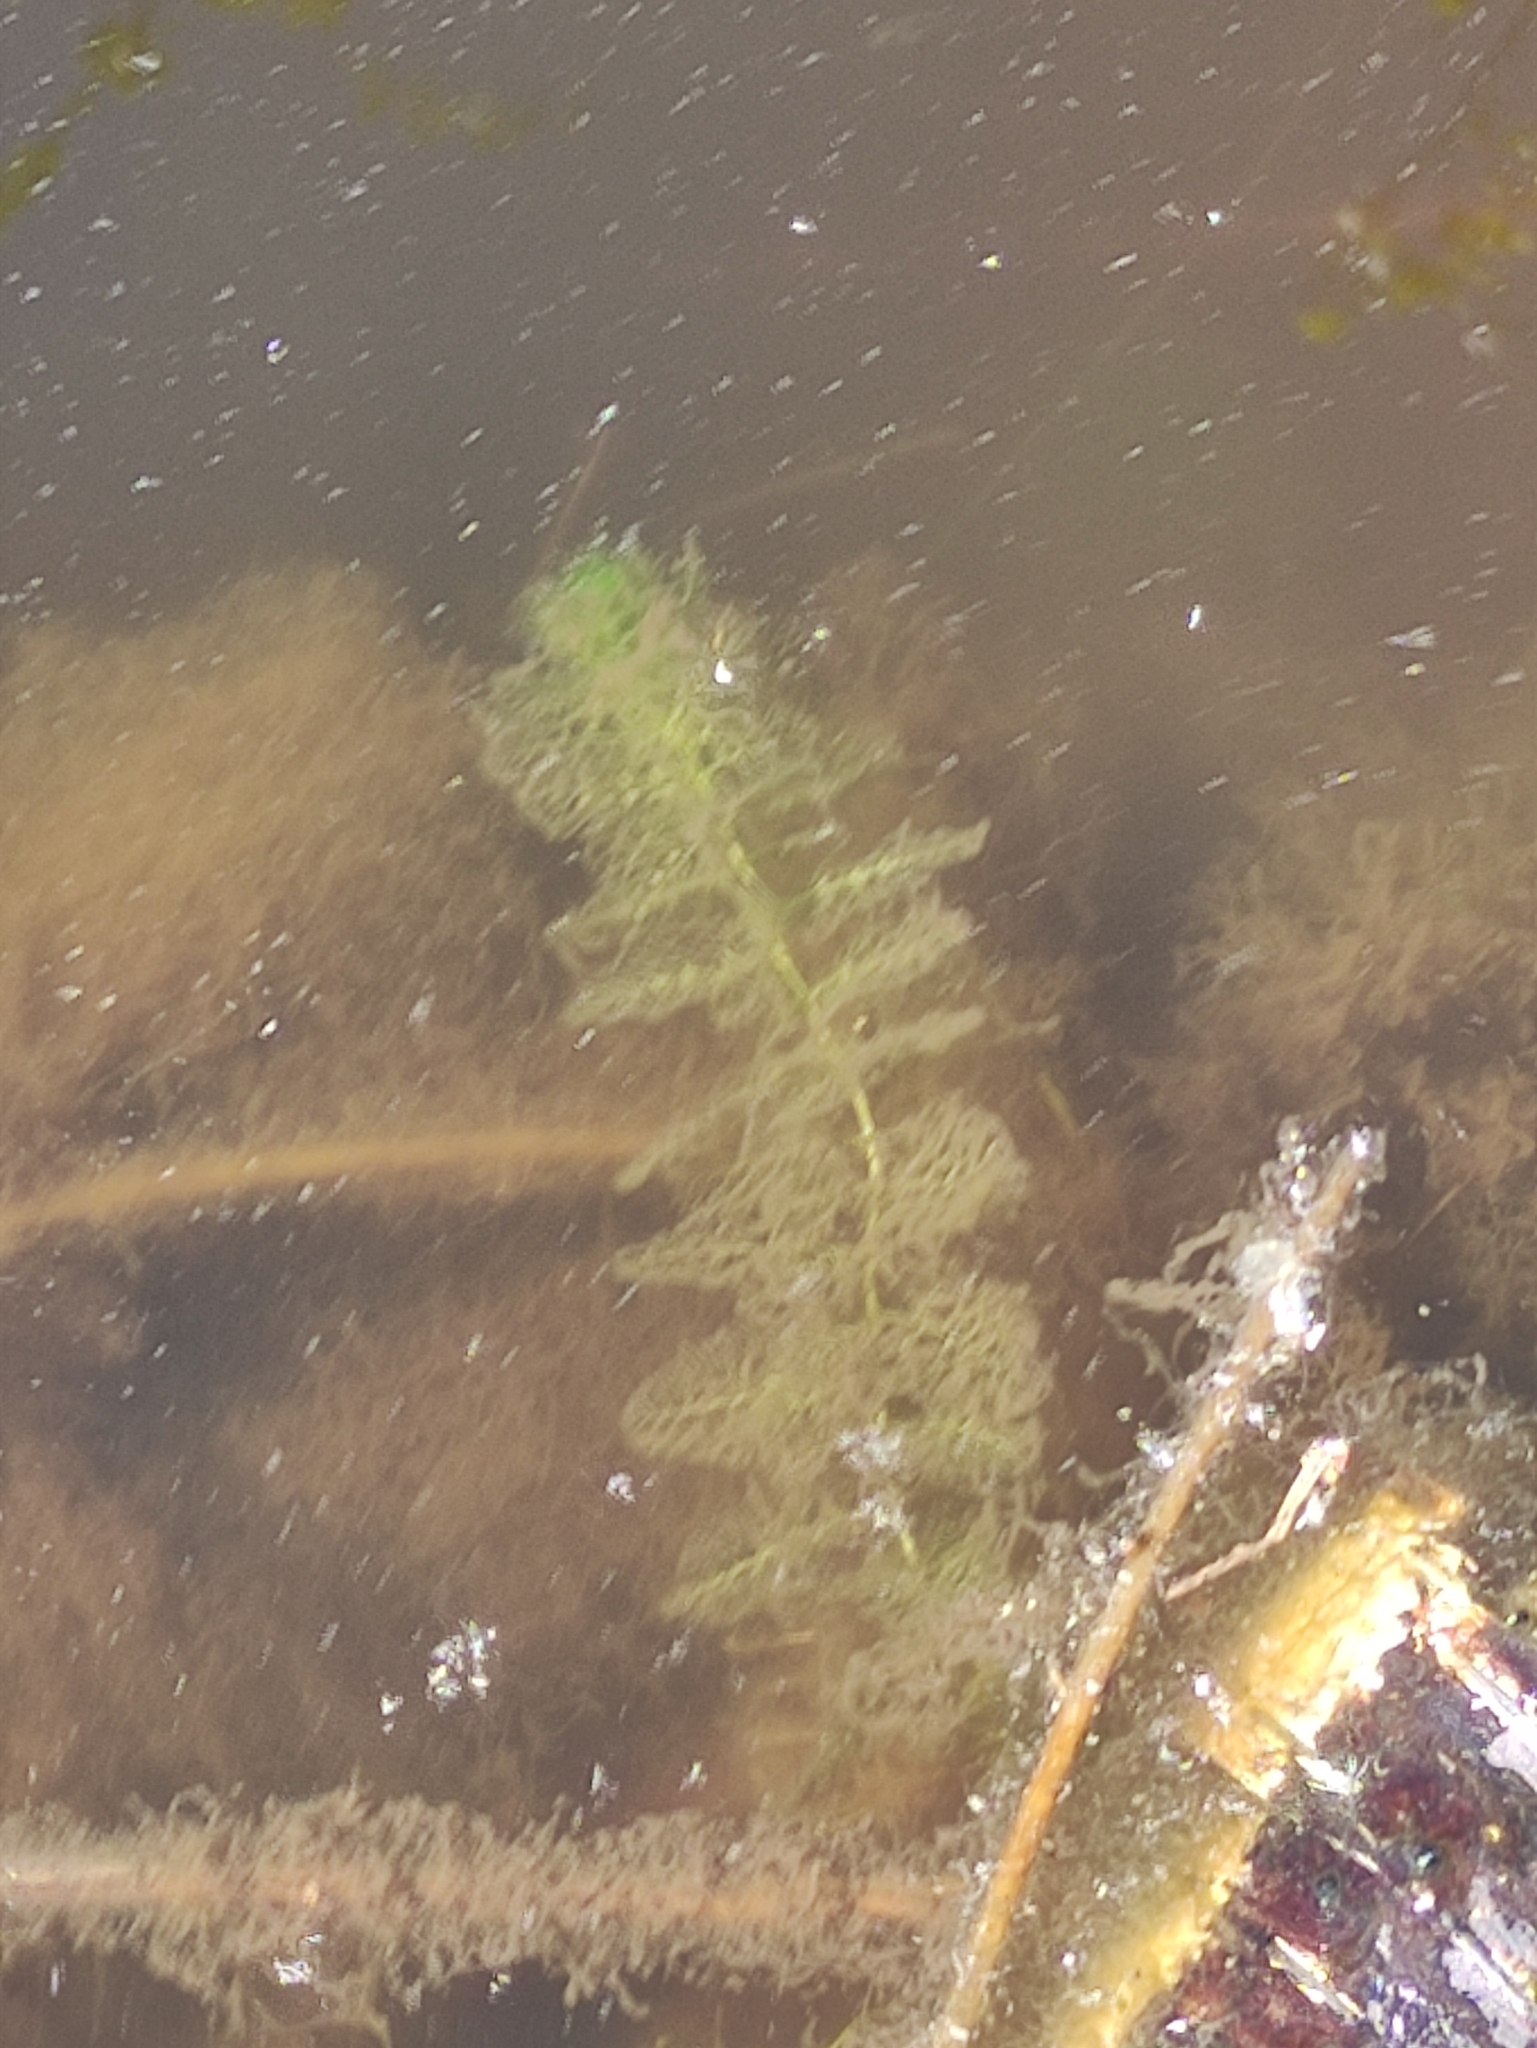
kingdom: Plantae
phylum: Tracheophyta
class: Magnoliopsida
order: Lamiales
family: Lentibulariaceae
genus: Utricularia
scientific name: Utricularia
